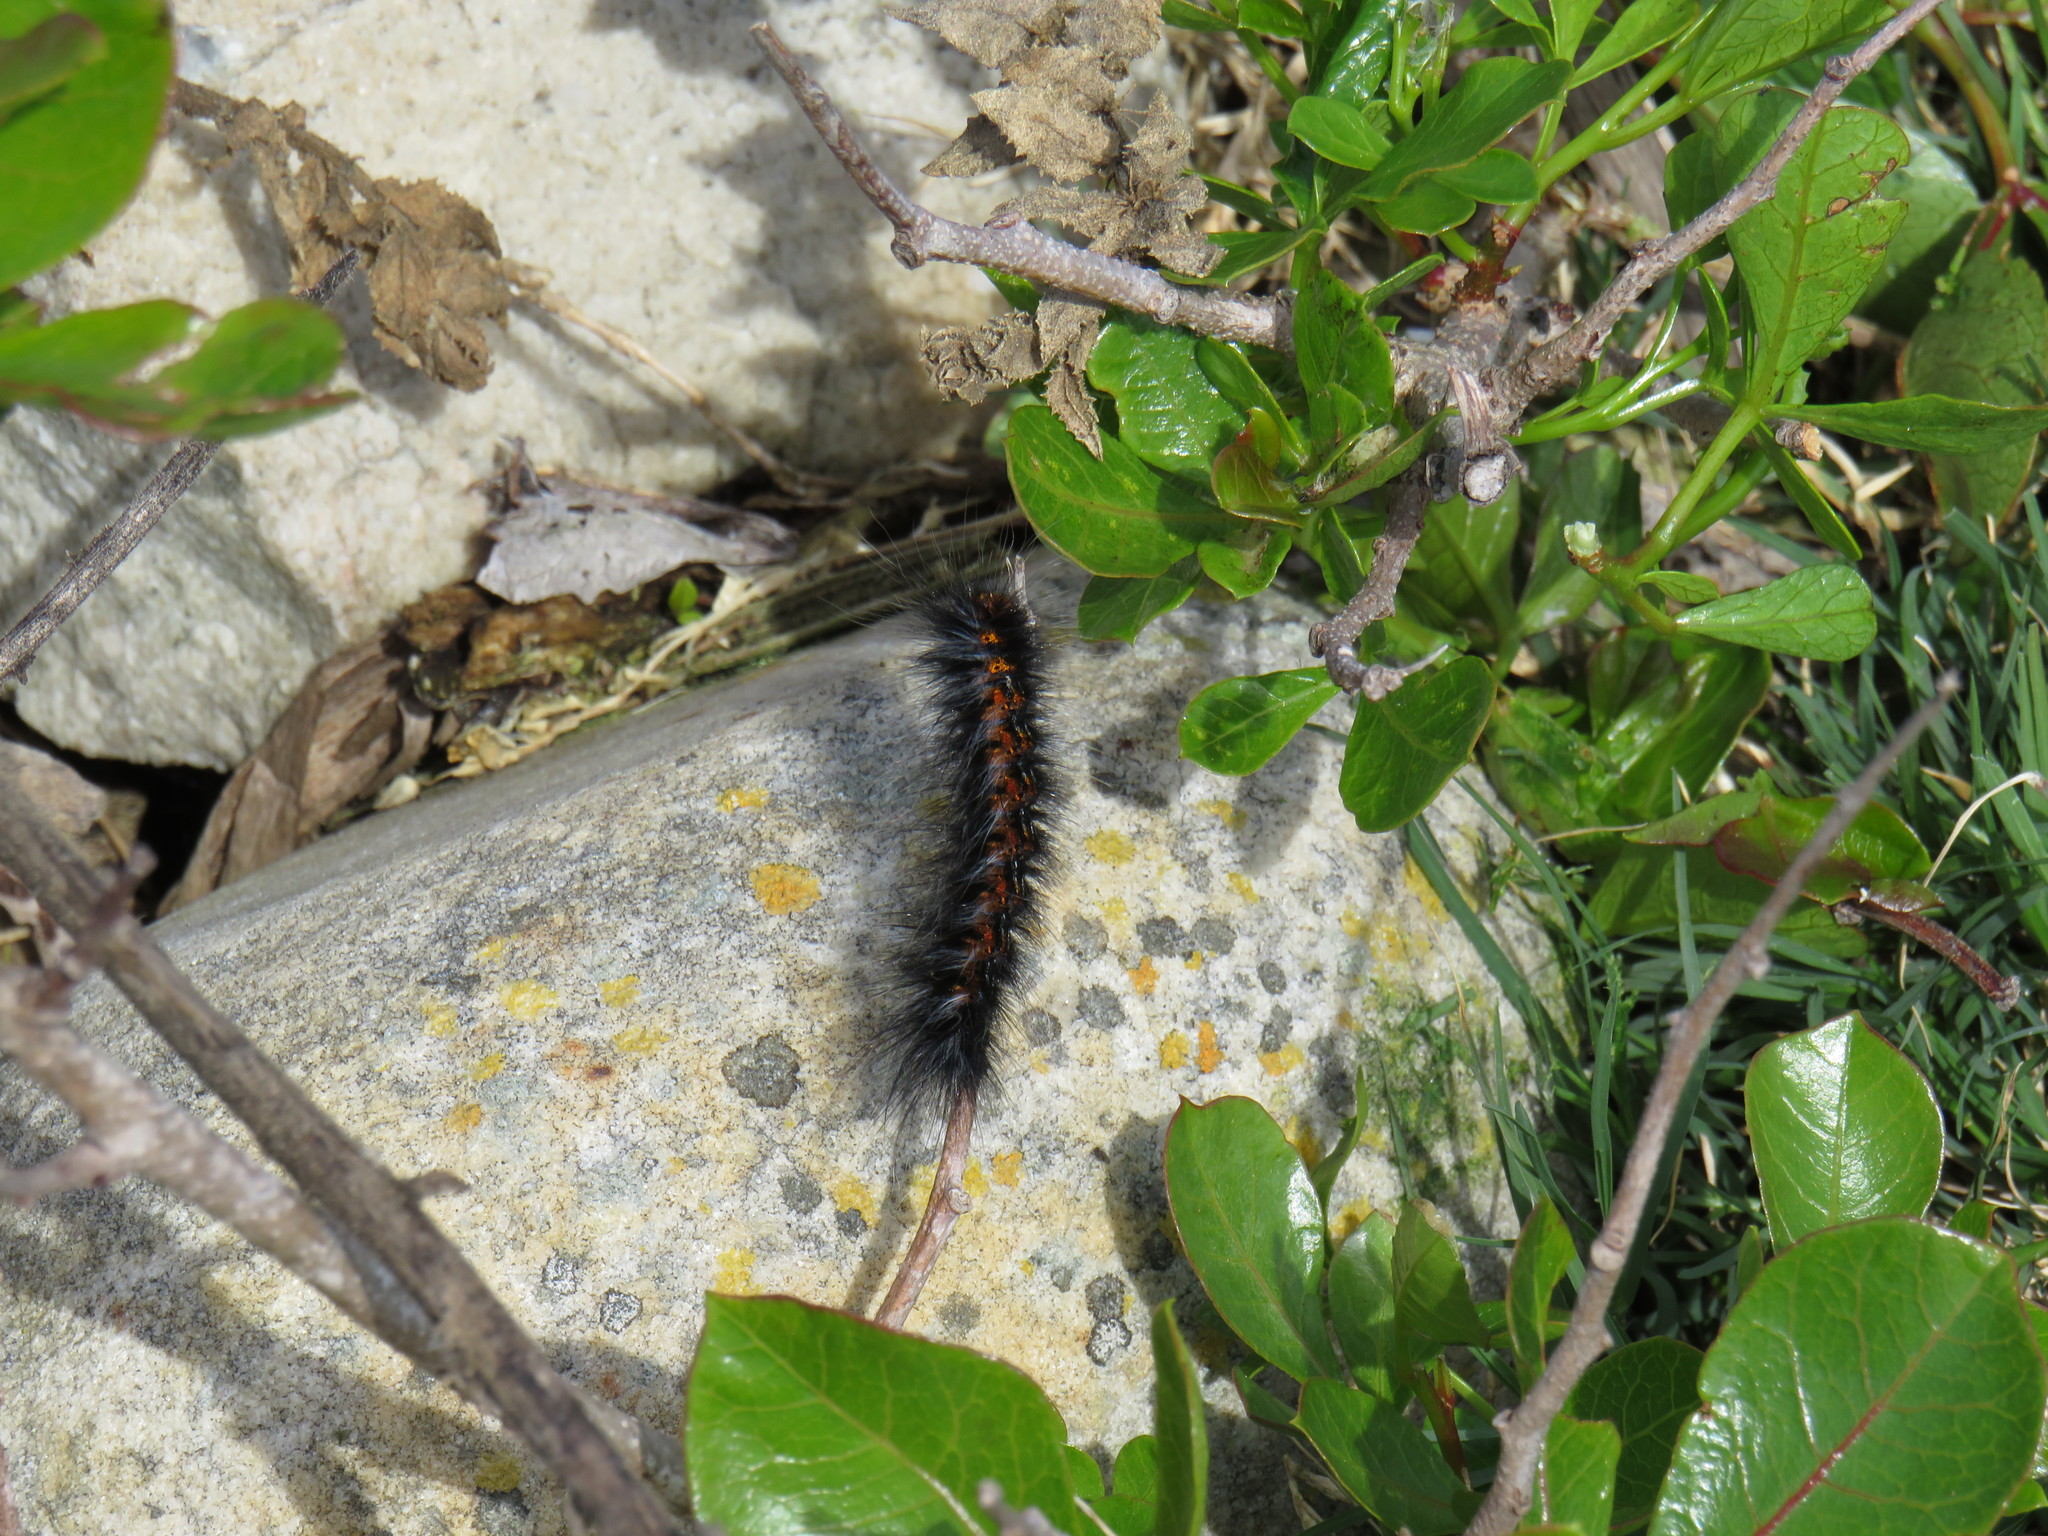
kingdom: Animalia
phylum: Arthropoda
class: Insecta
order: Lepidoptera
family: Lasiocampidae
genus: Mesocelis
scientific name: Mesocelis monticola
